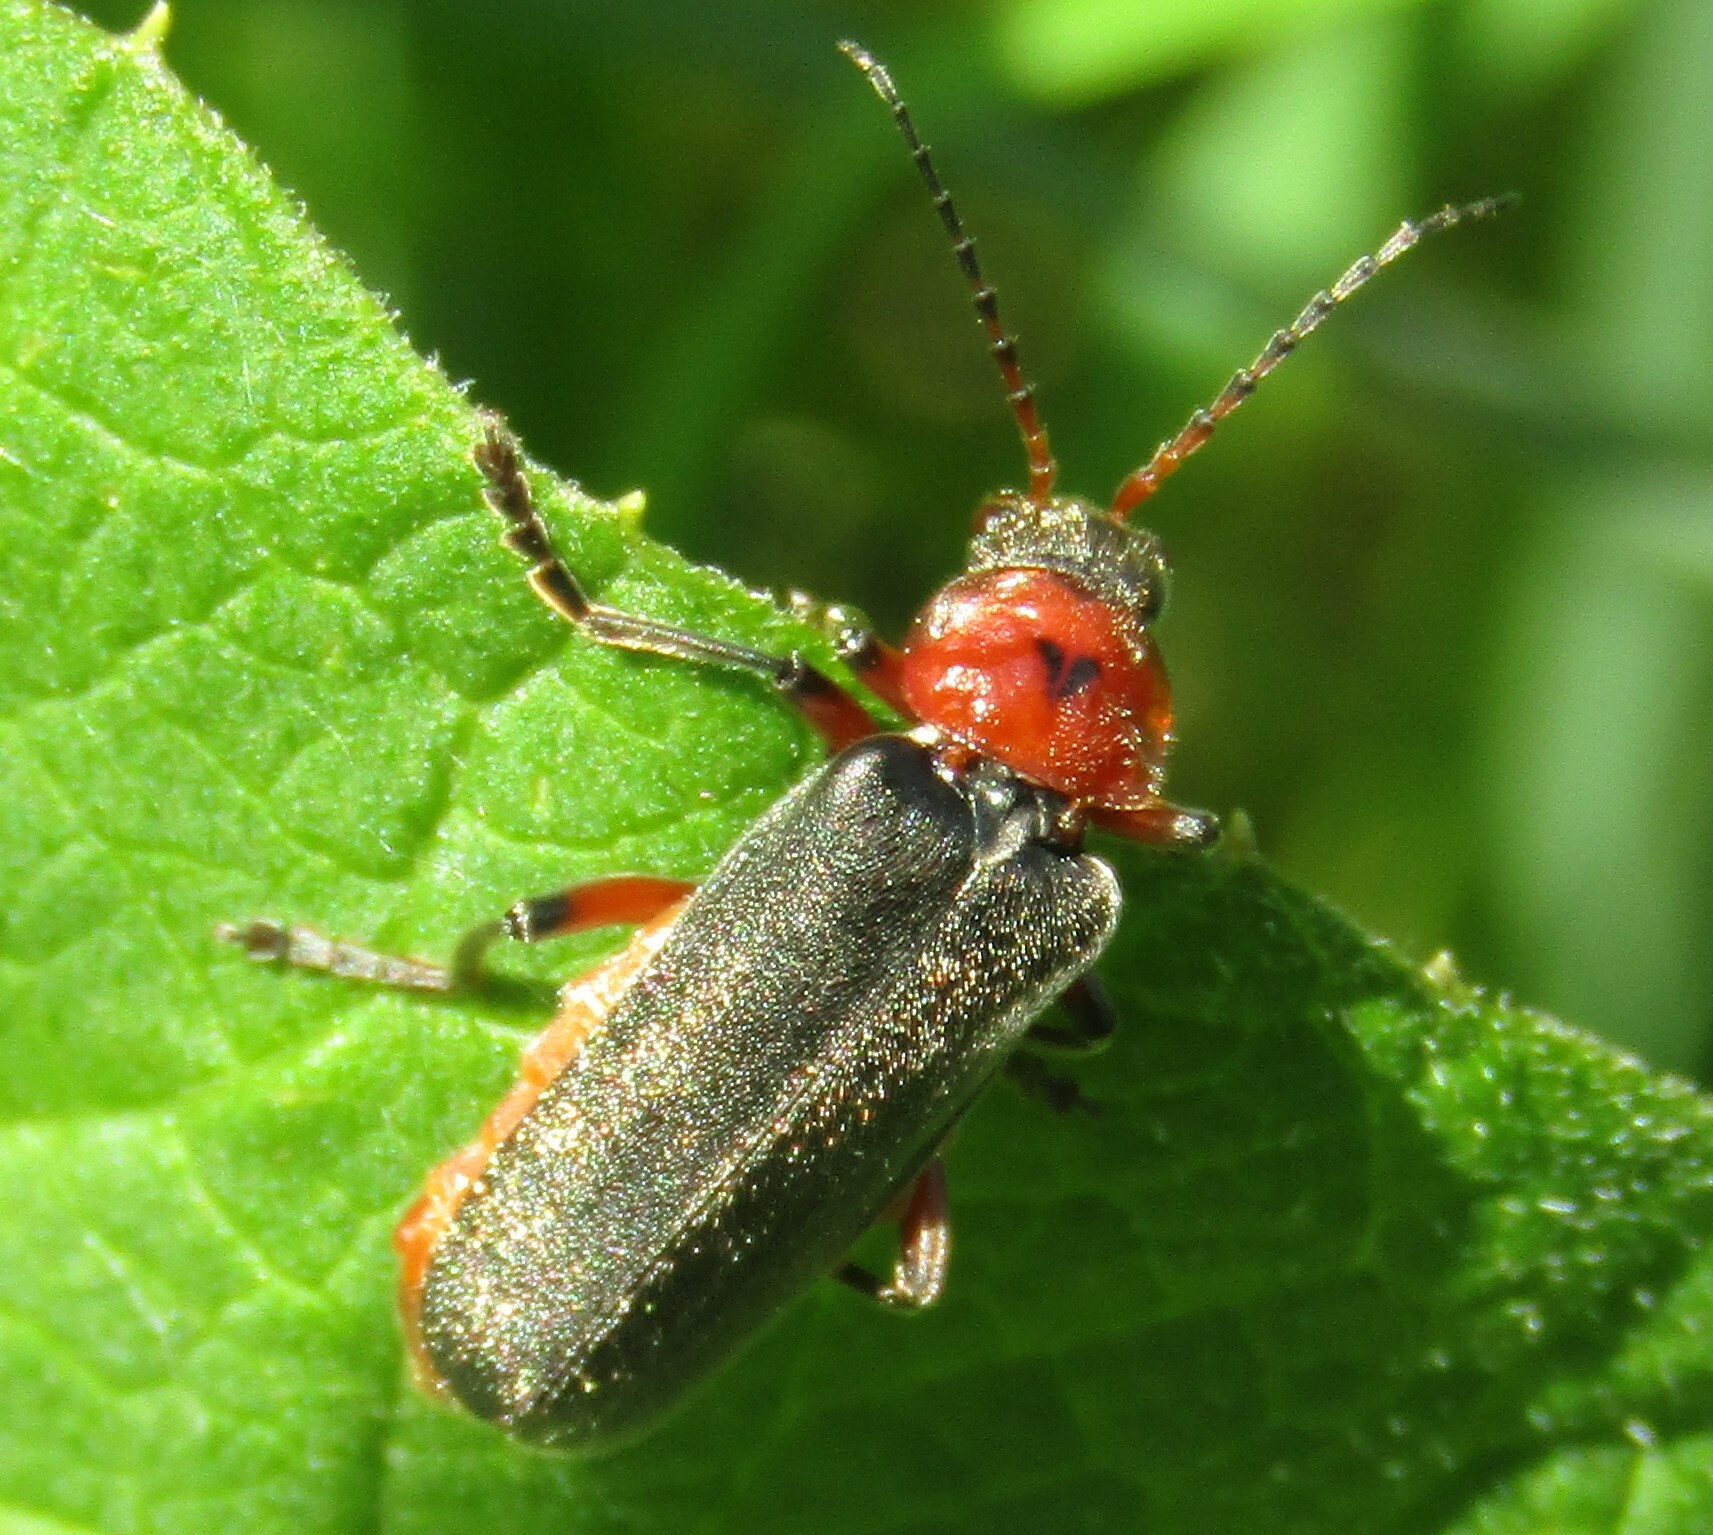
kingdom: Animalia
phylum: Arthropoda
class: Insecta
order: Coleoptera
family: Cantharidae
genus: Cantharis
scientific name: Cantharis rustica
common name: Soldier beetle
